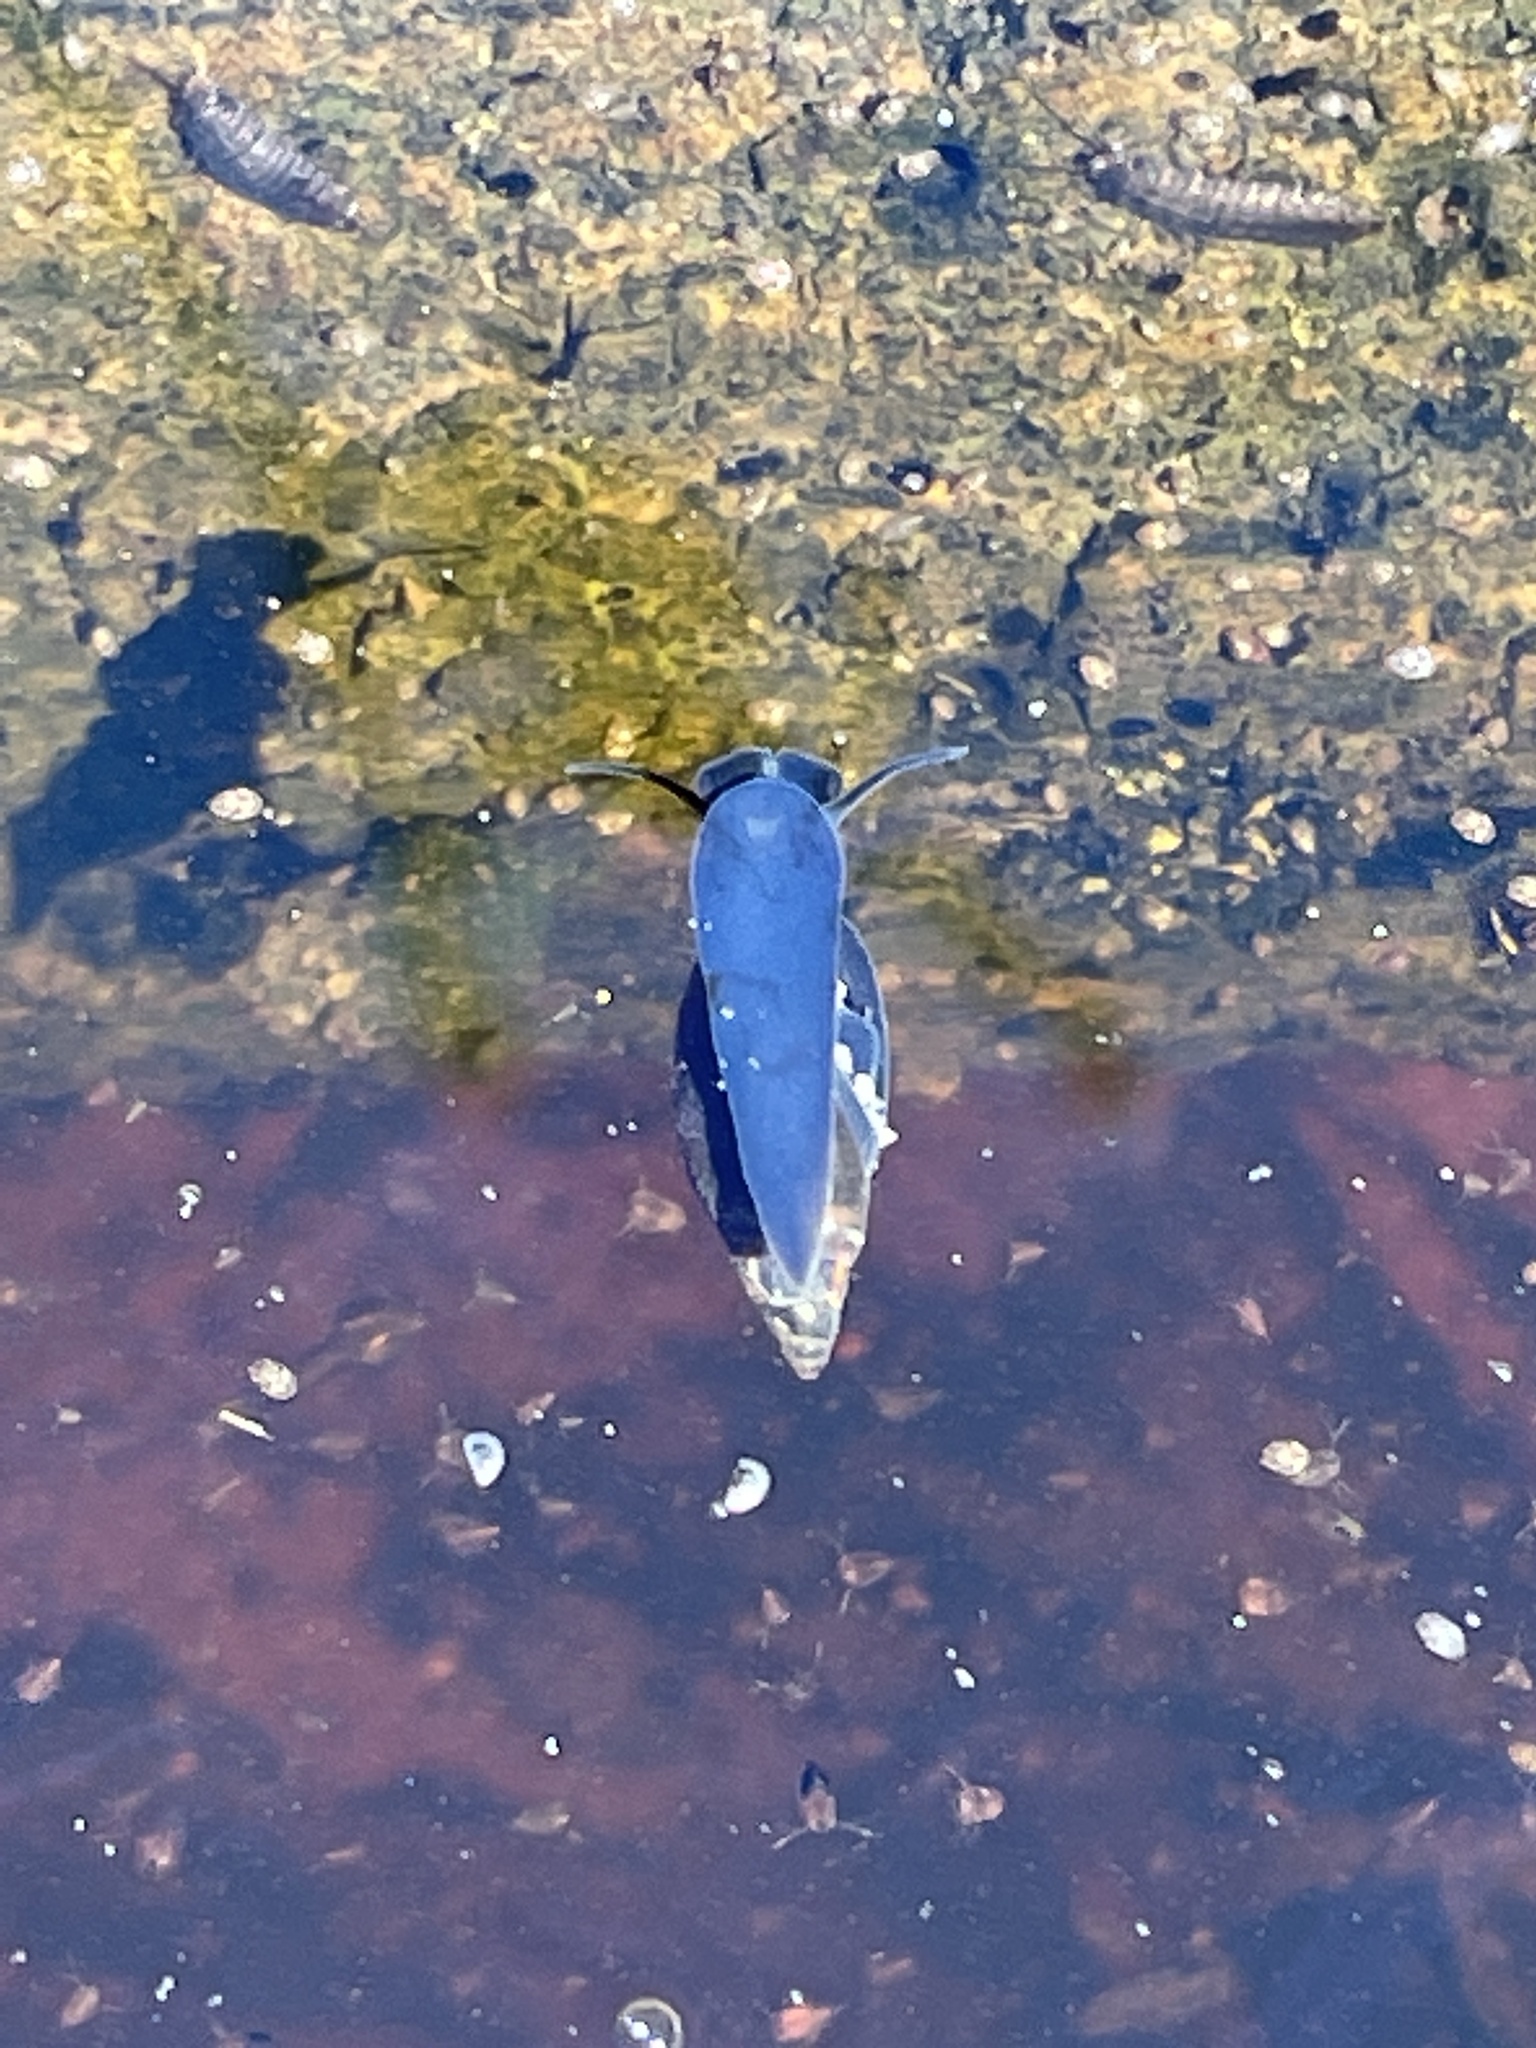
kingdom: Animalia
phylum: Mollusca
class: Gastropoda
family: Physidae
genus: Aplexa
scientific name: Aplexa hypnorum
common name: Moss bladder snail
